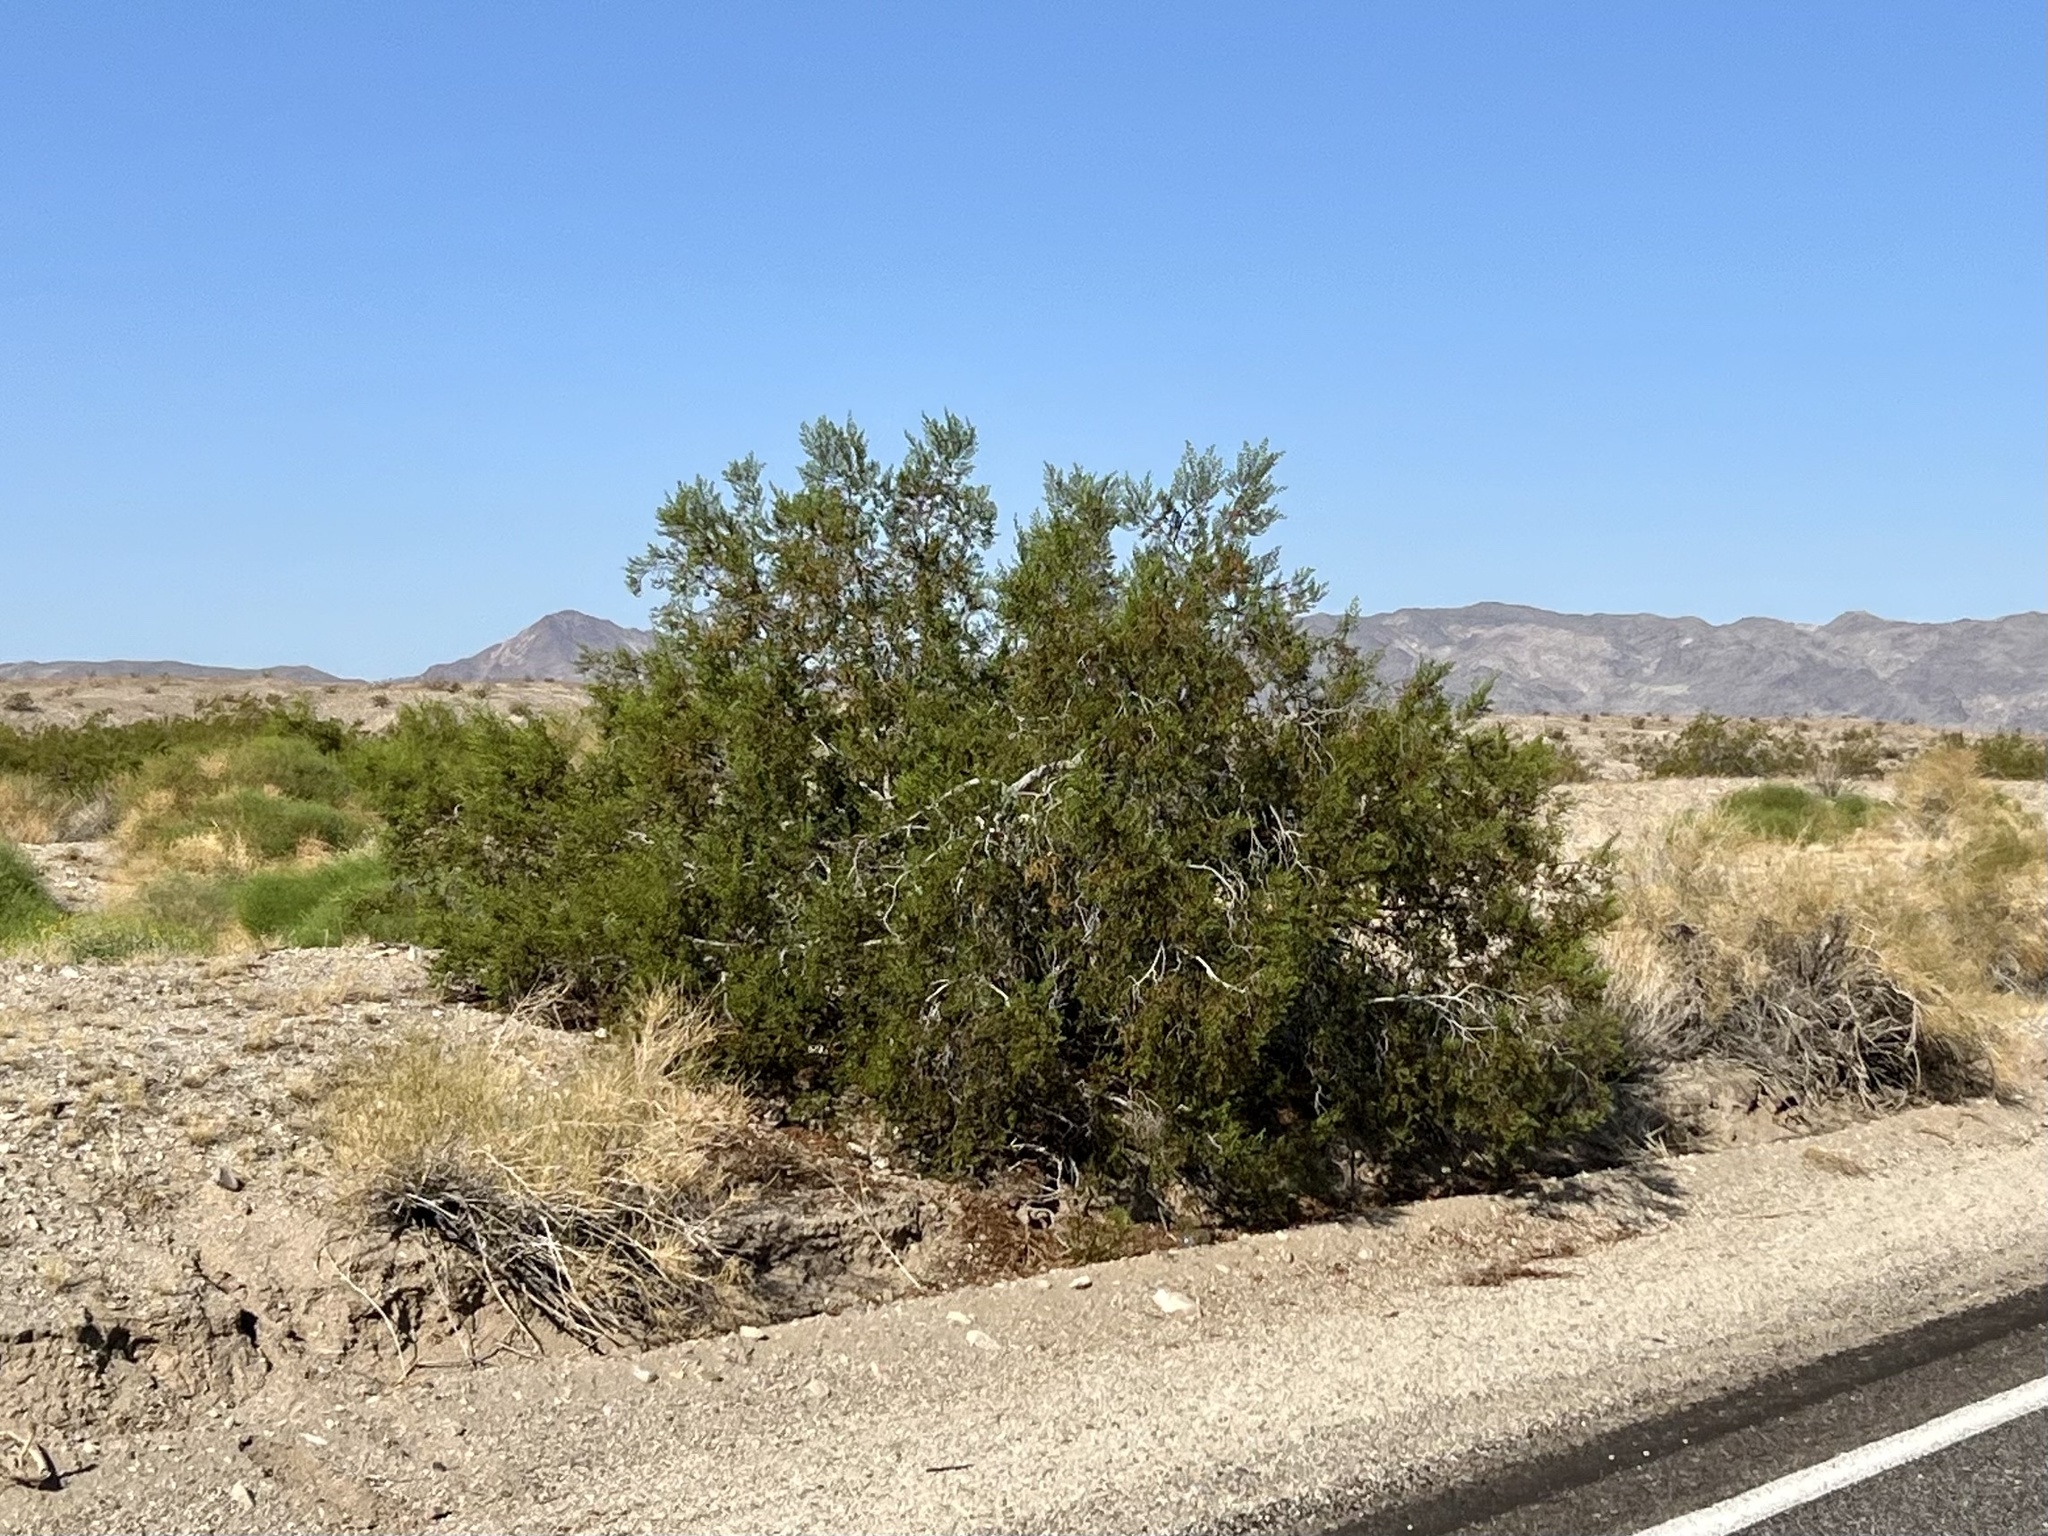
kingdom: Plantae
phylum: Tracheophyta
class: Magnoliopsida
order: Zygophyllales
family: Zygophyllaceae
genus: Larrea
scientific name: Larrea tridentata
